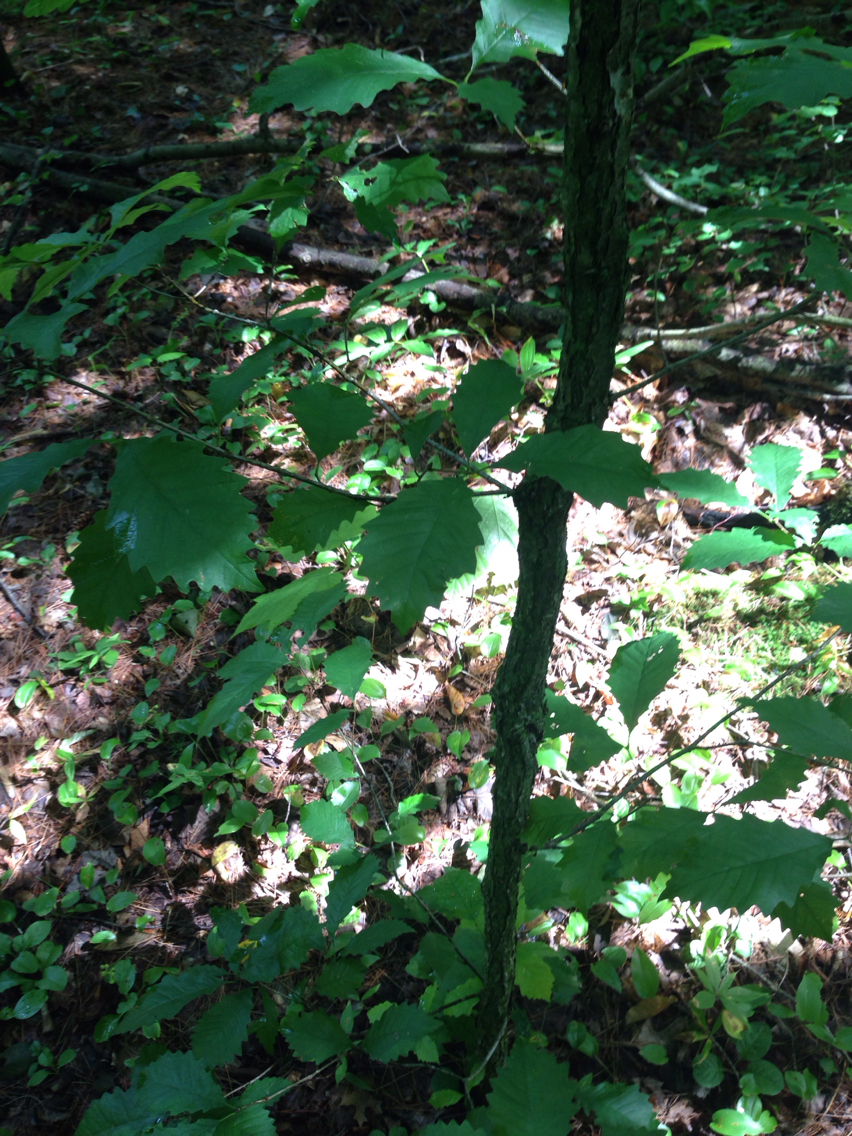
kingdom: Plantae
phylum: Tracheophyta
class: Magnoliopsida
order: Fagales
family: Fagaceae
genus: Quercus
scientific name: Quercus muehlenbergii
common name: Chinkapin oak
